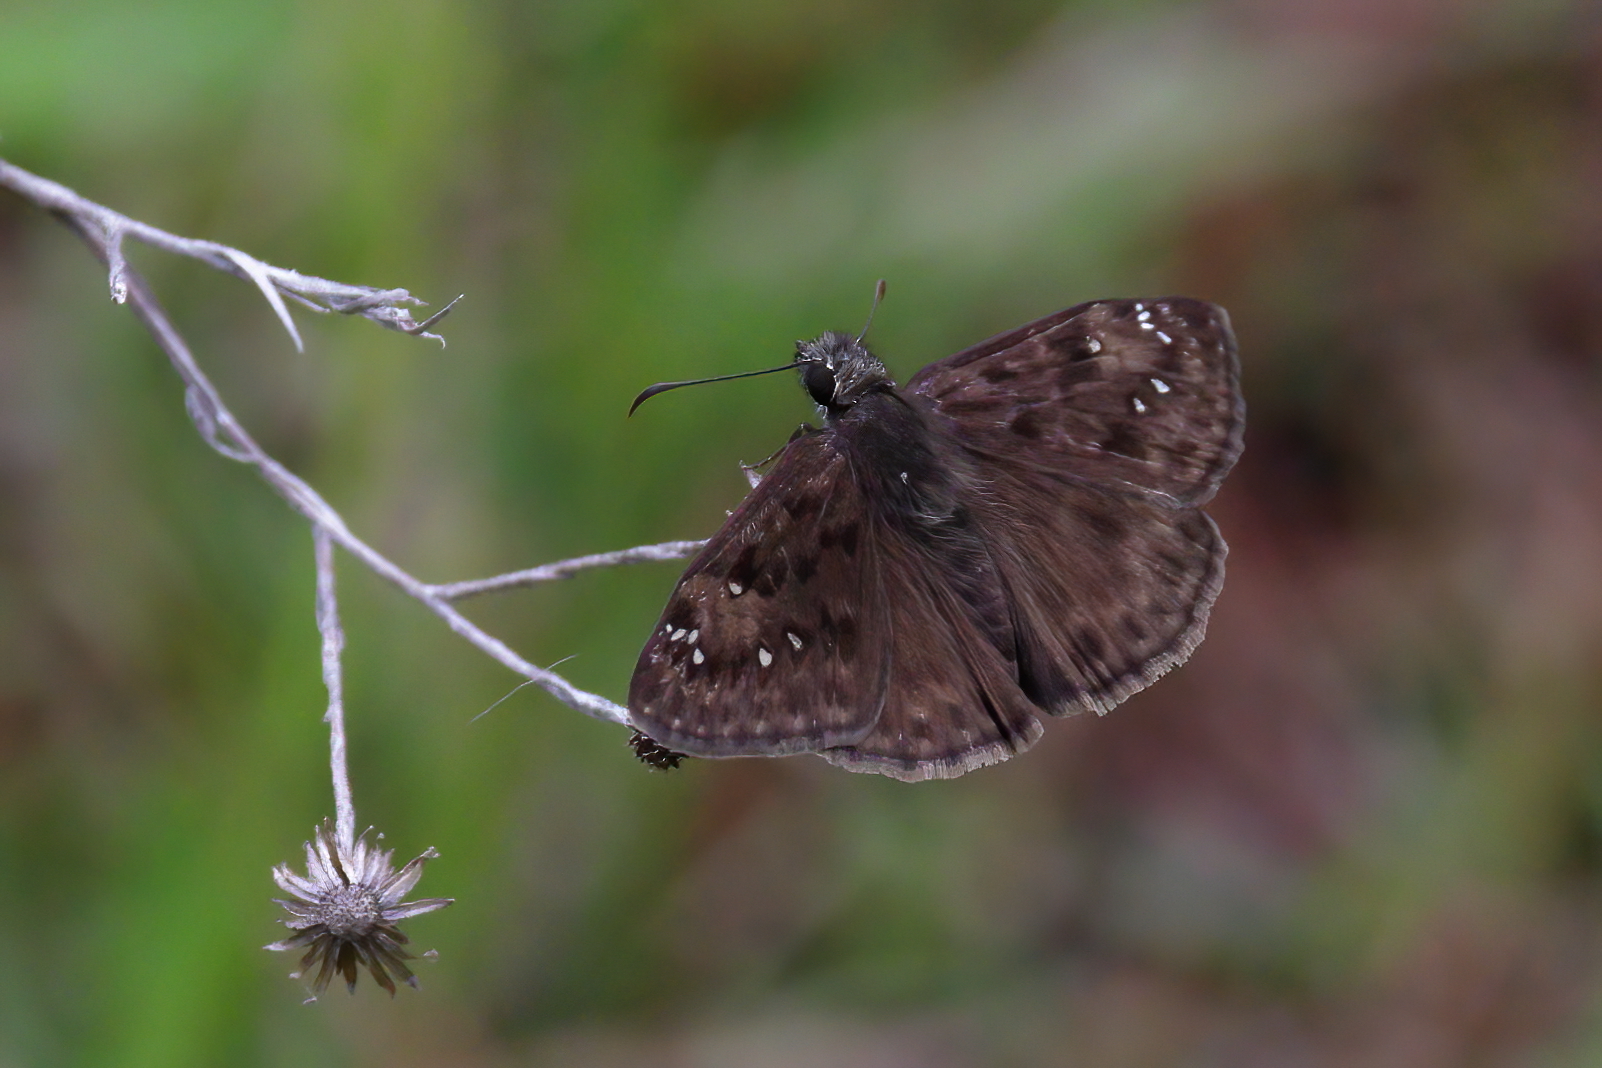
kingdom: Animalia
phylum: Arthropoda
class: Insecta
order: Lepidoptera
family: Hesperiidae
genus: Erynnis
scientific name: Erynnis horatius
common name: Horace's duskywing
